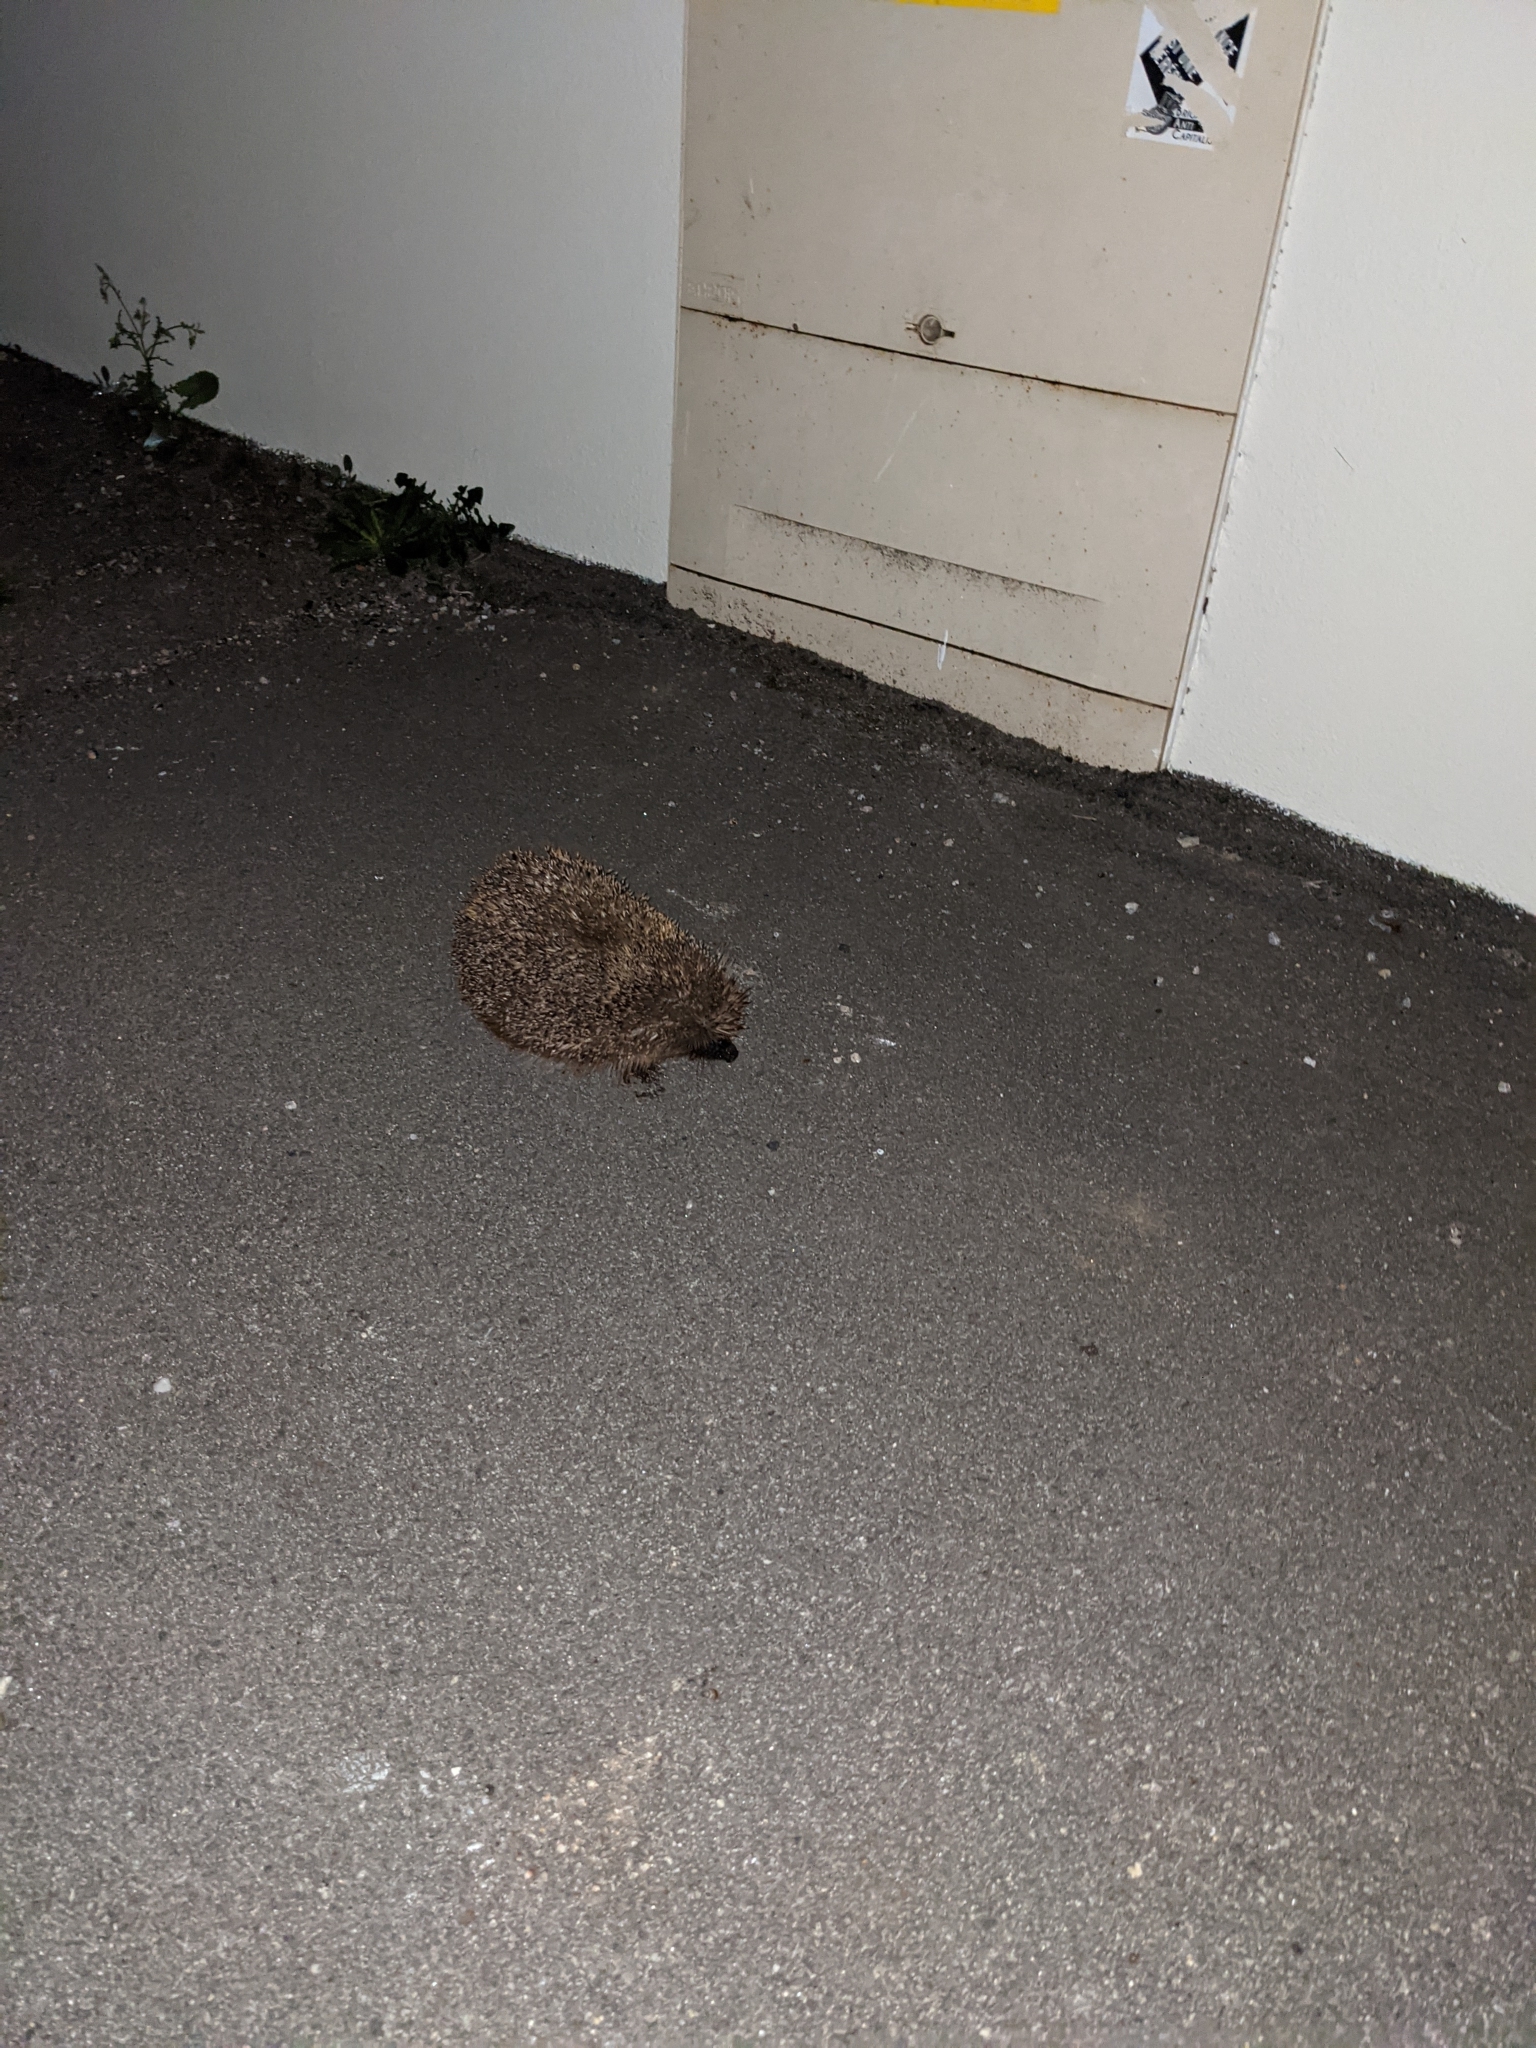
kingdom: Animalia
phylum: Chordata
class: Mammalia
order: Erinaceomorpha
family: Erinaceidae
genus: Erinaceus
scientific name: Erinaceus europaeus
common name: West european hedgehog
